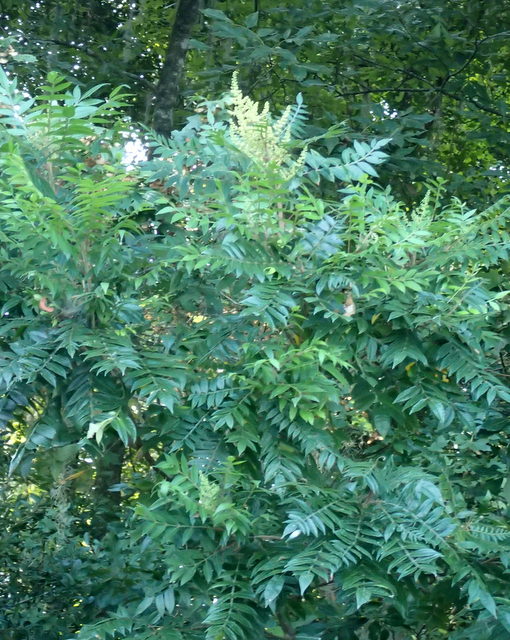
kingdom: Plantae
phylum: Tracheophyta
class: Magnoliopsida
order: Sapindales
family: Anacardiaceae
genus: Rhus
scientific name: Rhus copallina
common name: Shining sumac
